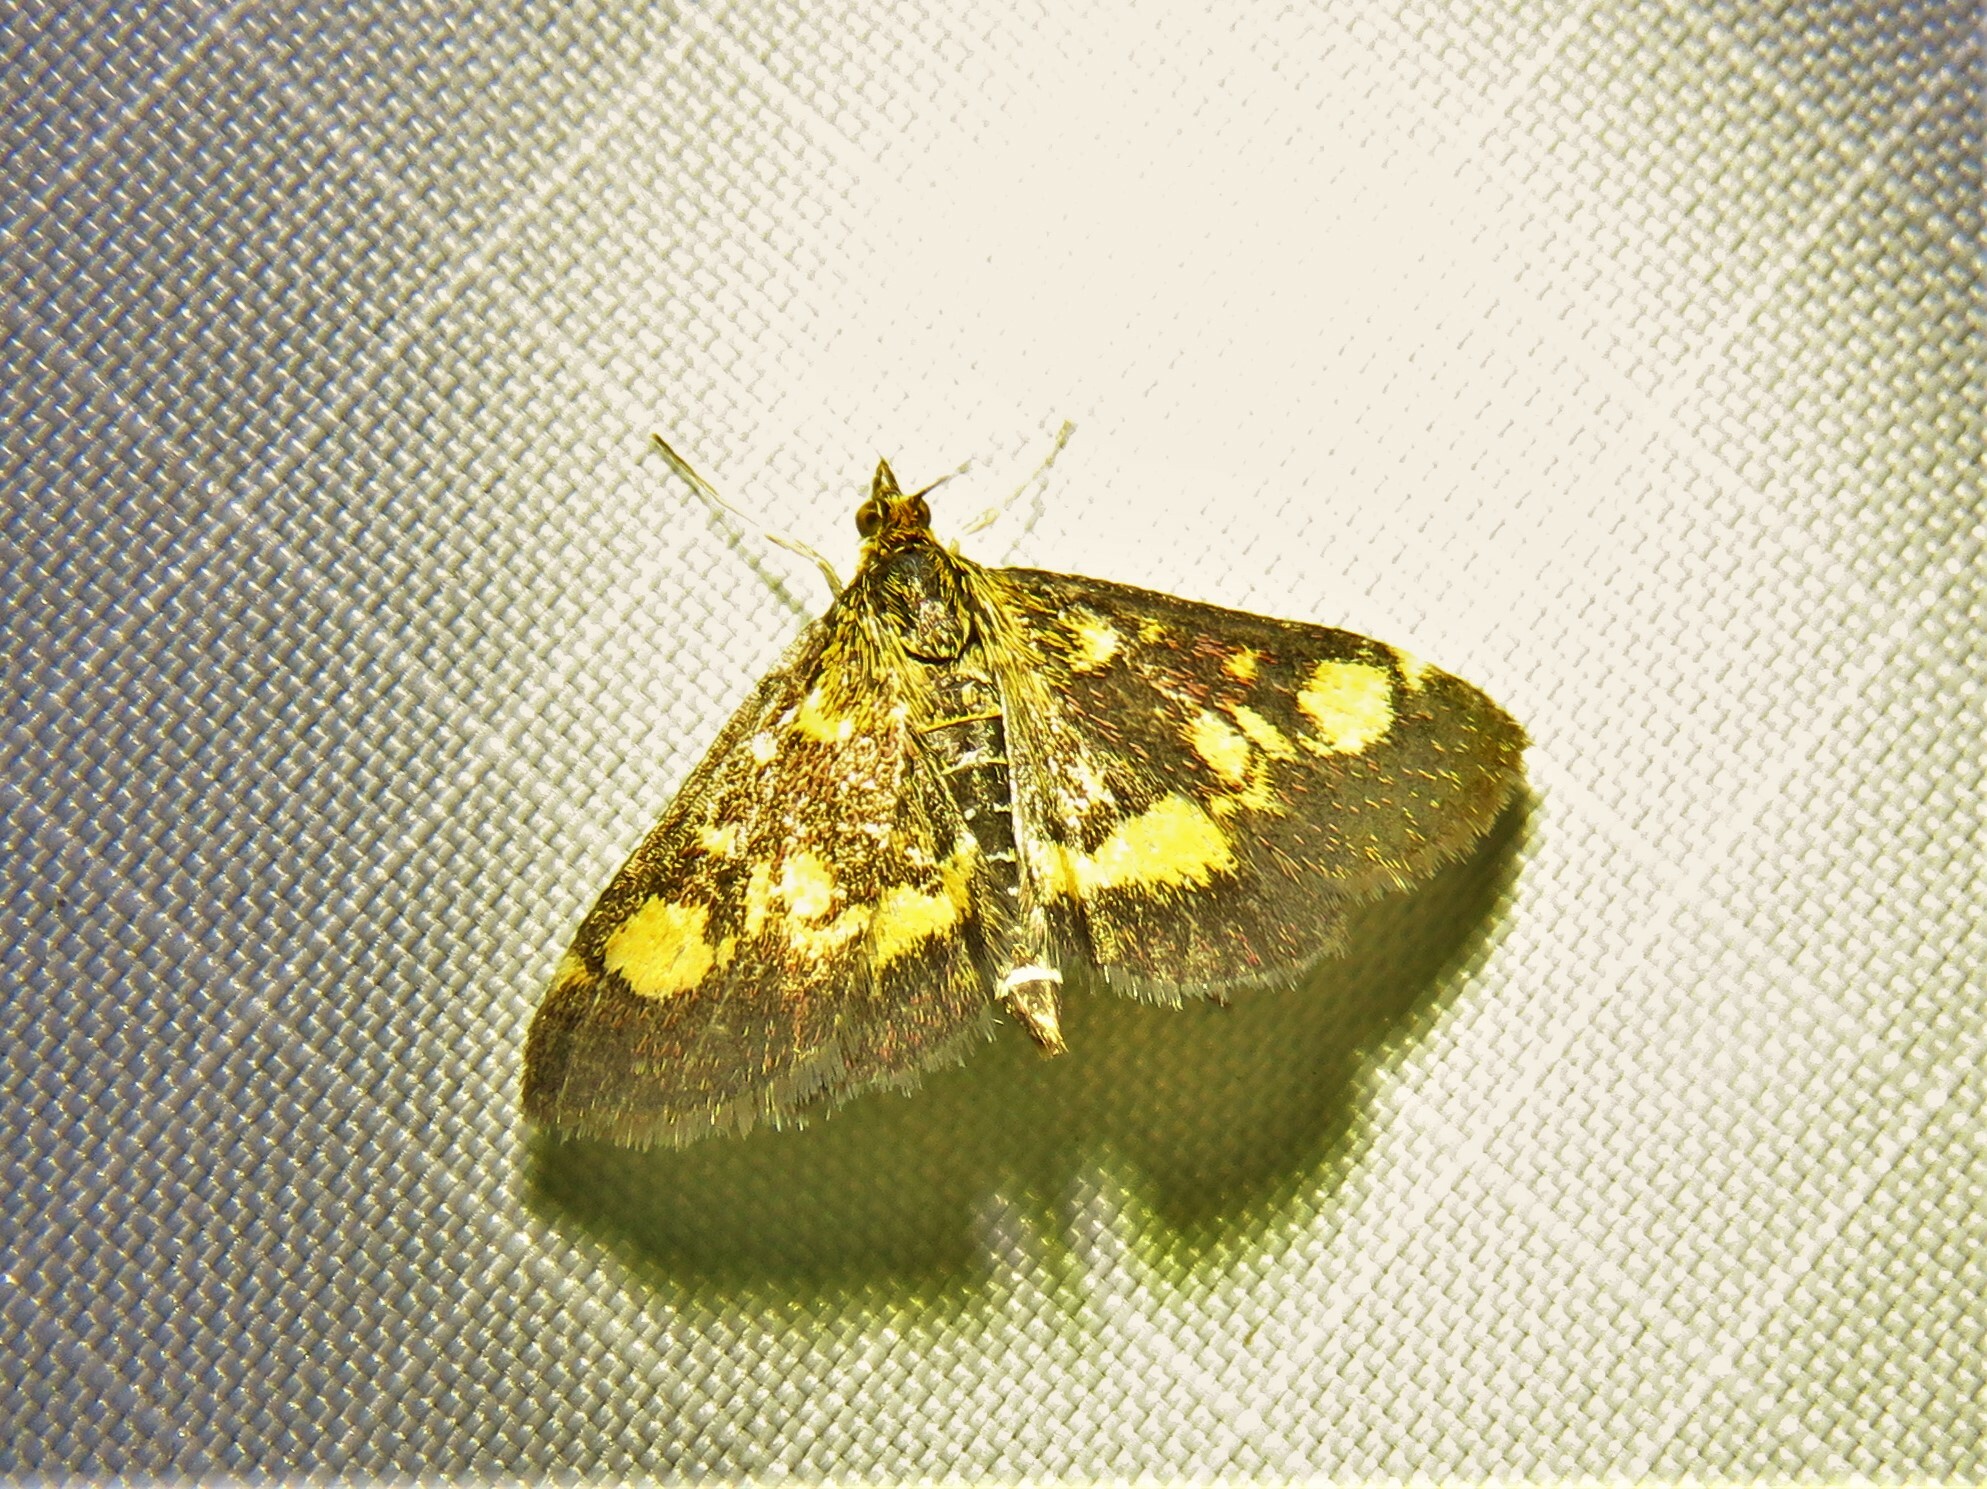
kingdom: Animalia
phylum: Arthropoda
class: Insecta
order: Lepidoptera
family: Crambidae
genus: Pyrausta
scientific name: Pyrausta aurata
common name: Small purple & gold
